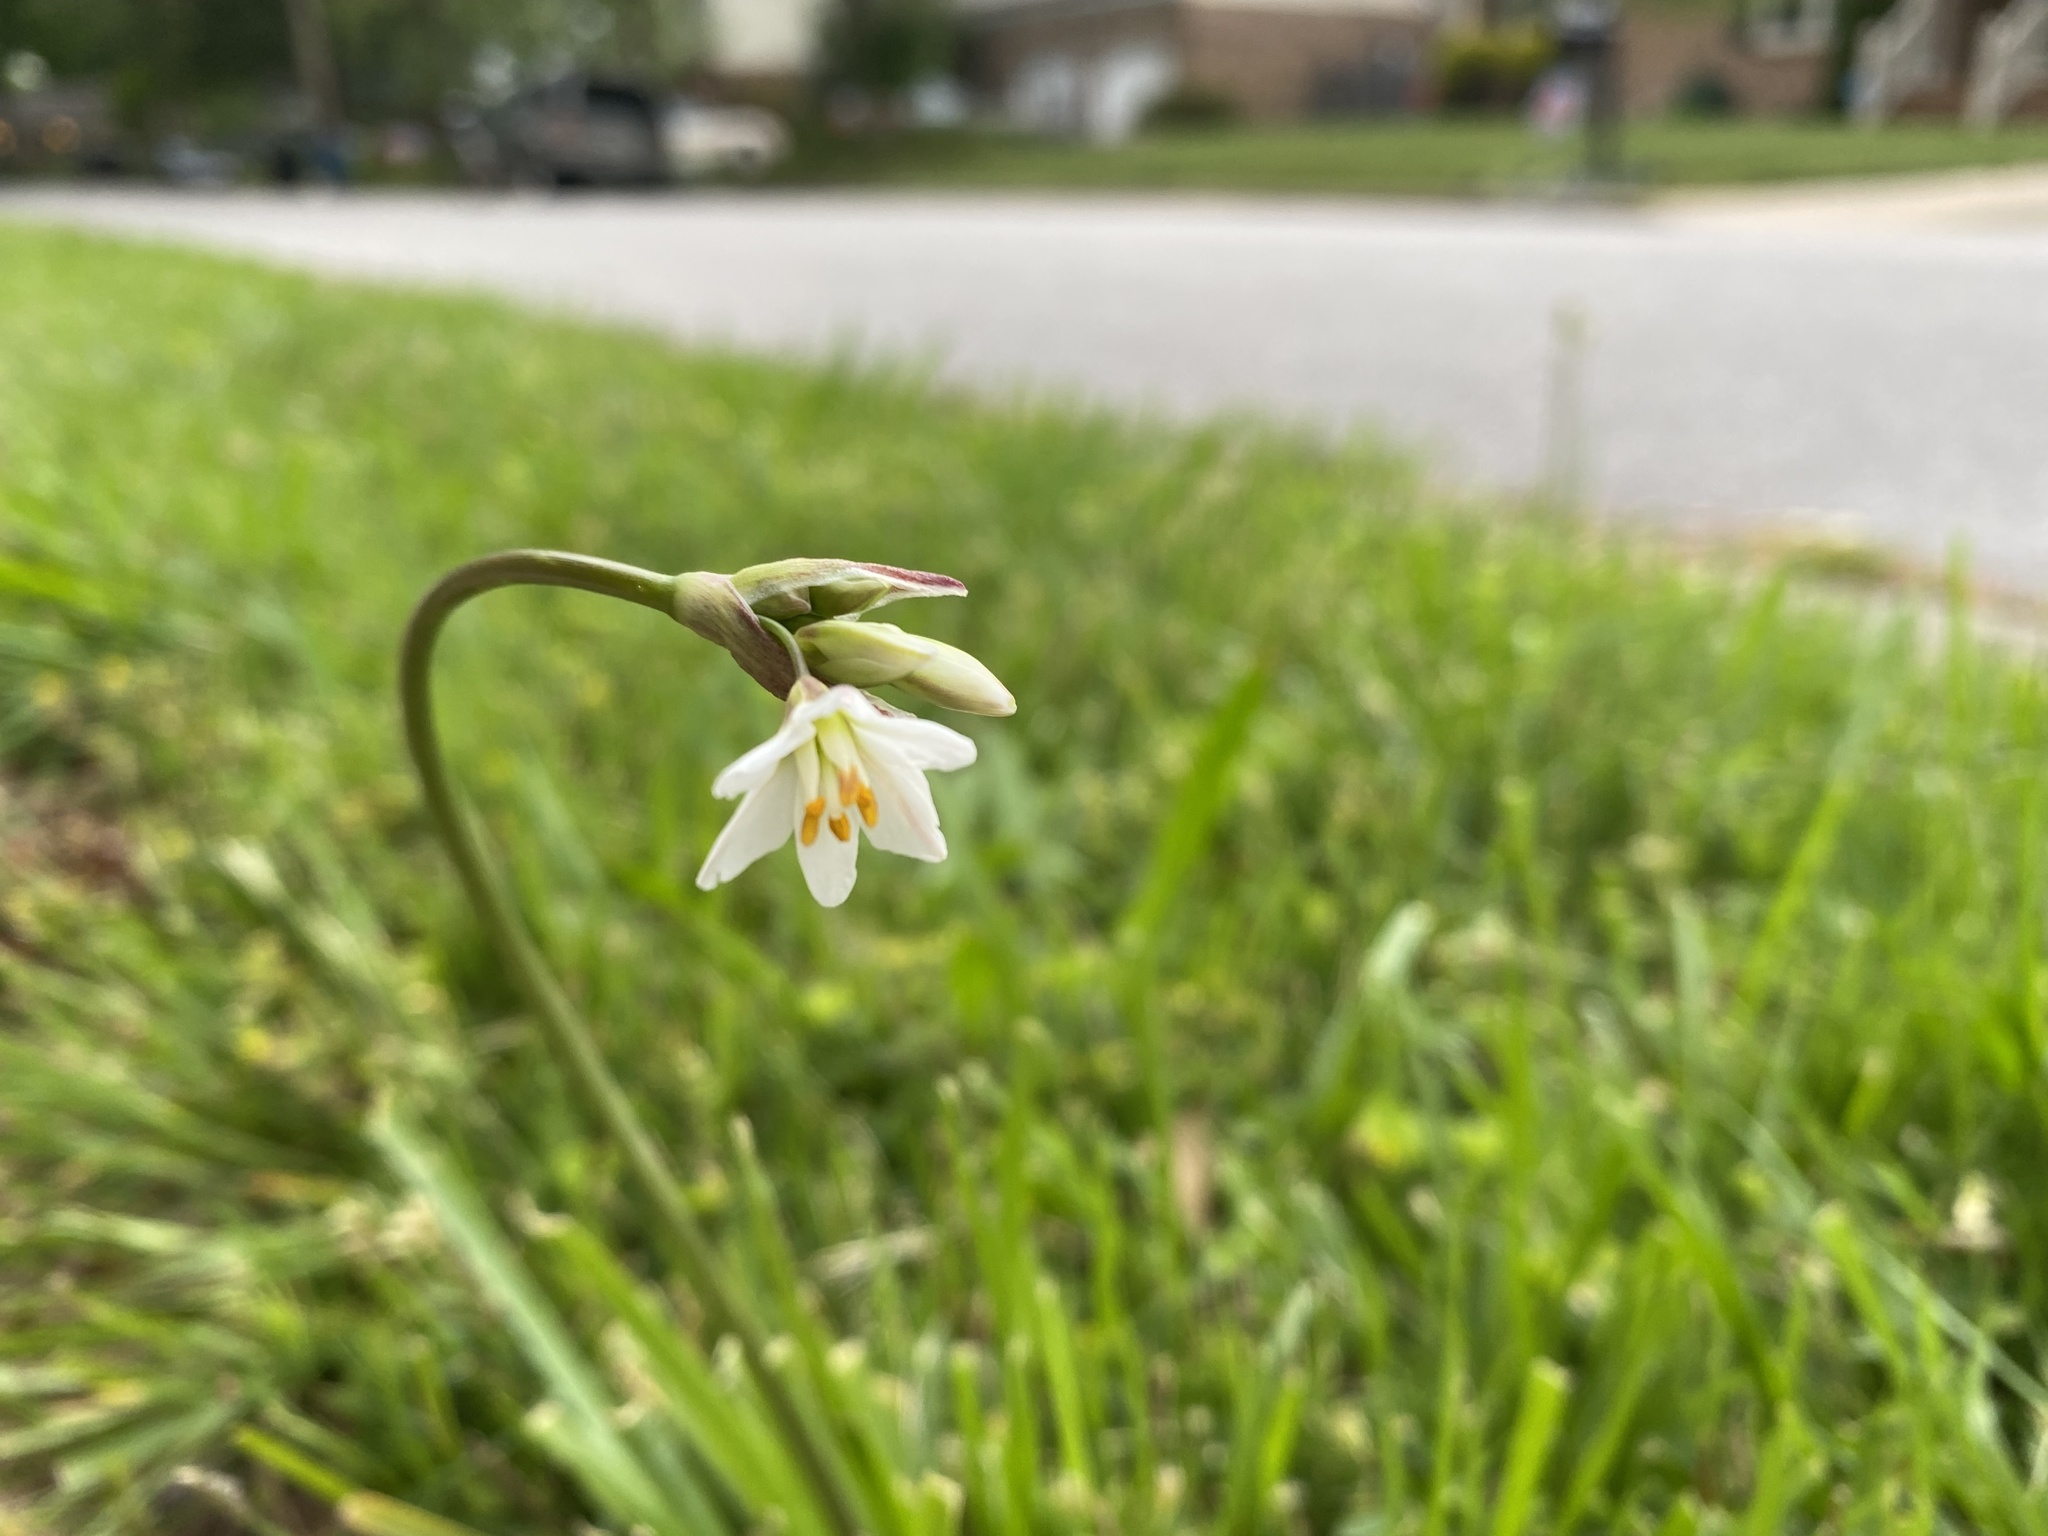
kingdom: Plantae
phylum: Tracheophyta
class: Liliopsida
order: Asparagales
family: Amaryllidaceae
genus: Nothoscordum
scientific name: Nothoscordum bivalve
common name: Crow-poison
